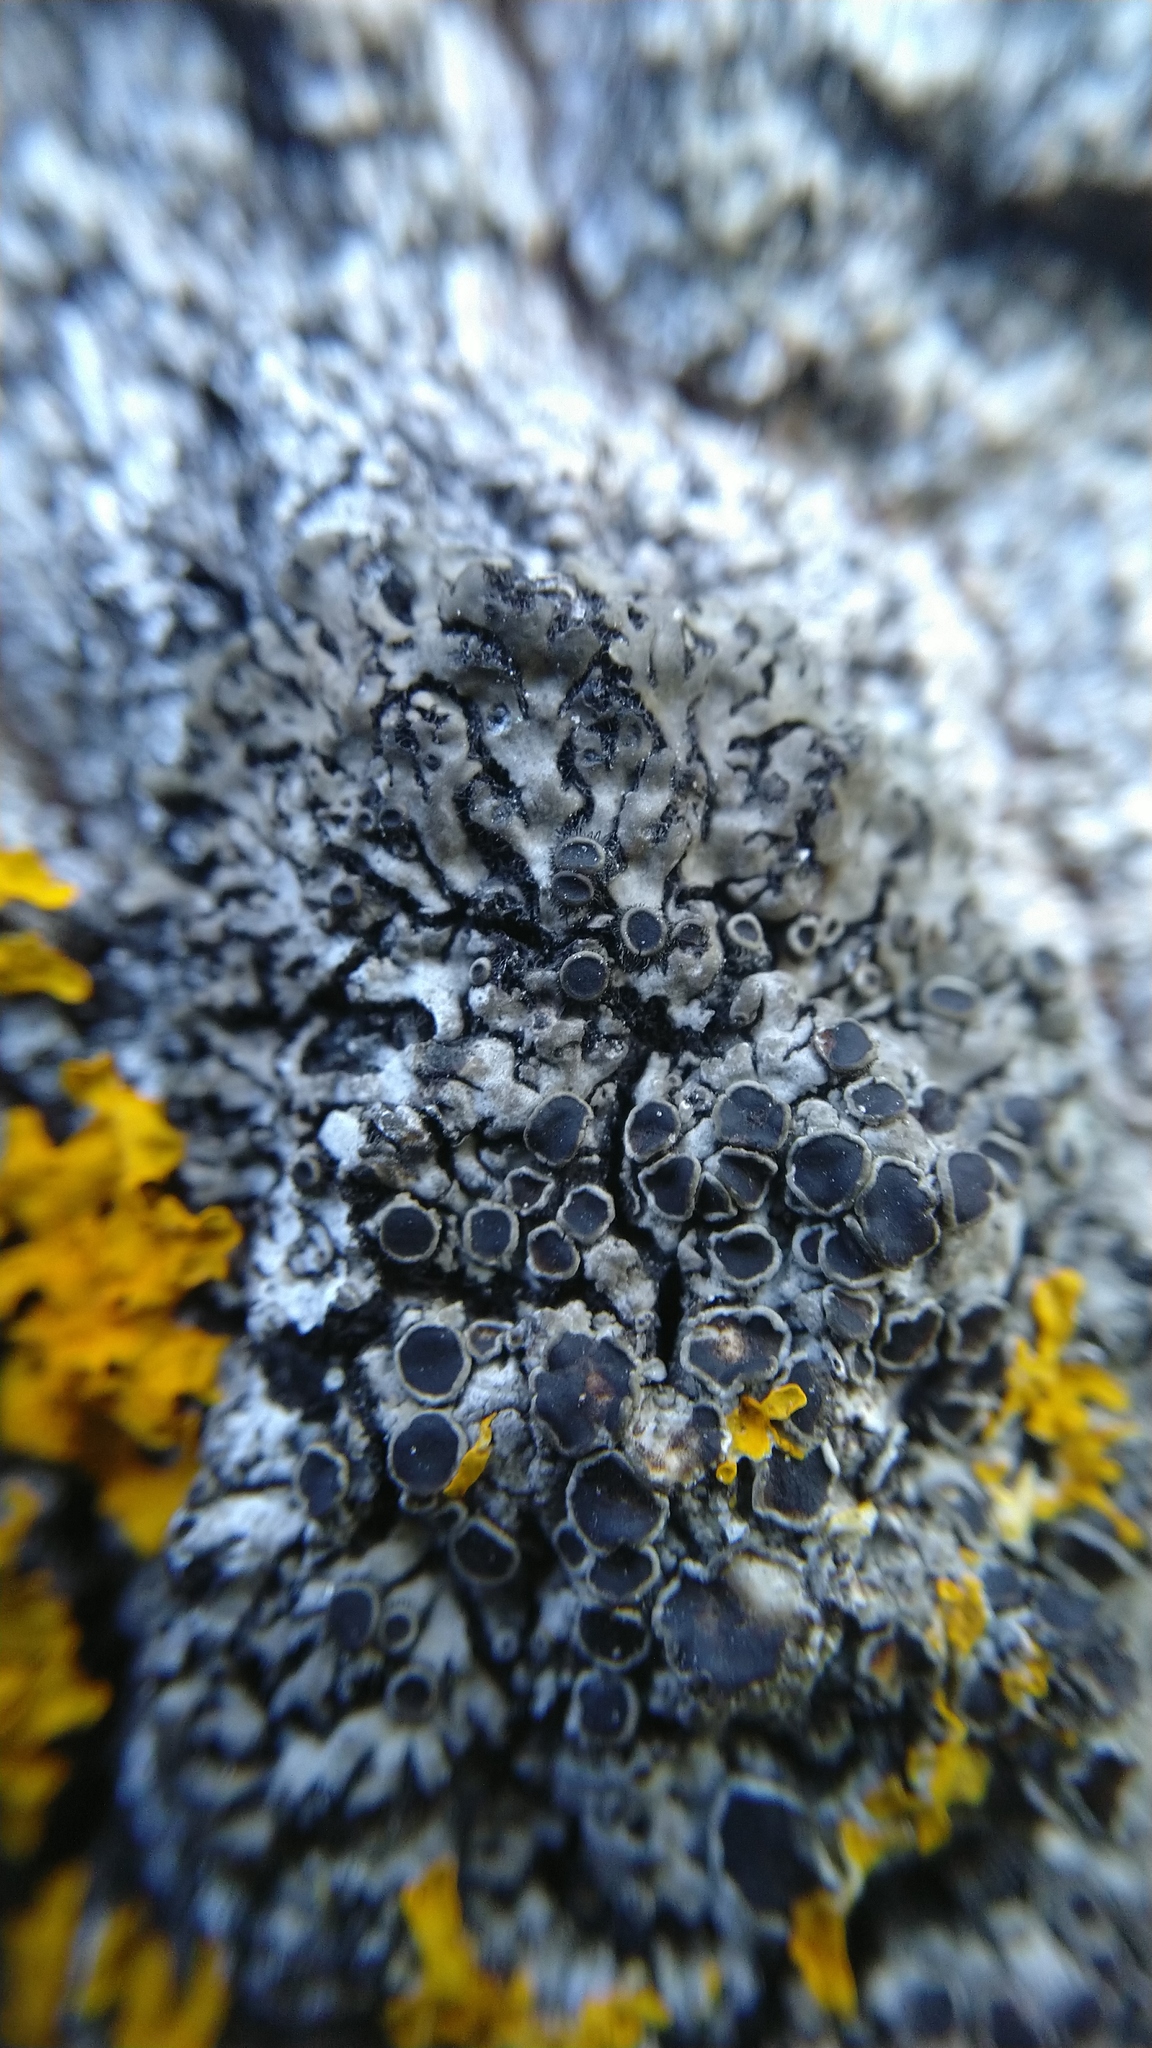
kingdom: Fungi
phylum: Ascomycota
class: Lecanoromycetes
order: Caliciales
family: Physciaceae
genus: Phaeophyscia
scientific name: Phaeophyscia ciliata
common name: Smooth shadow lichen
